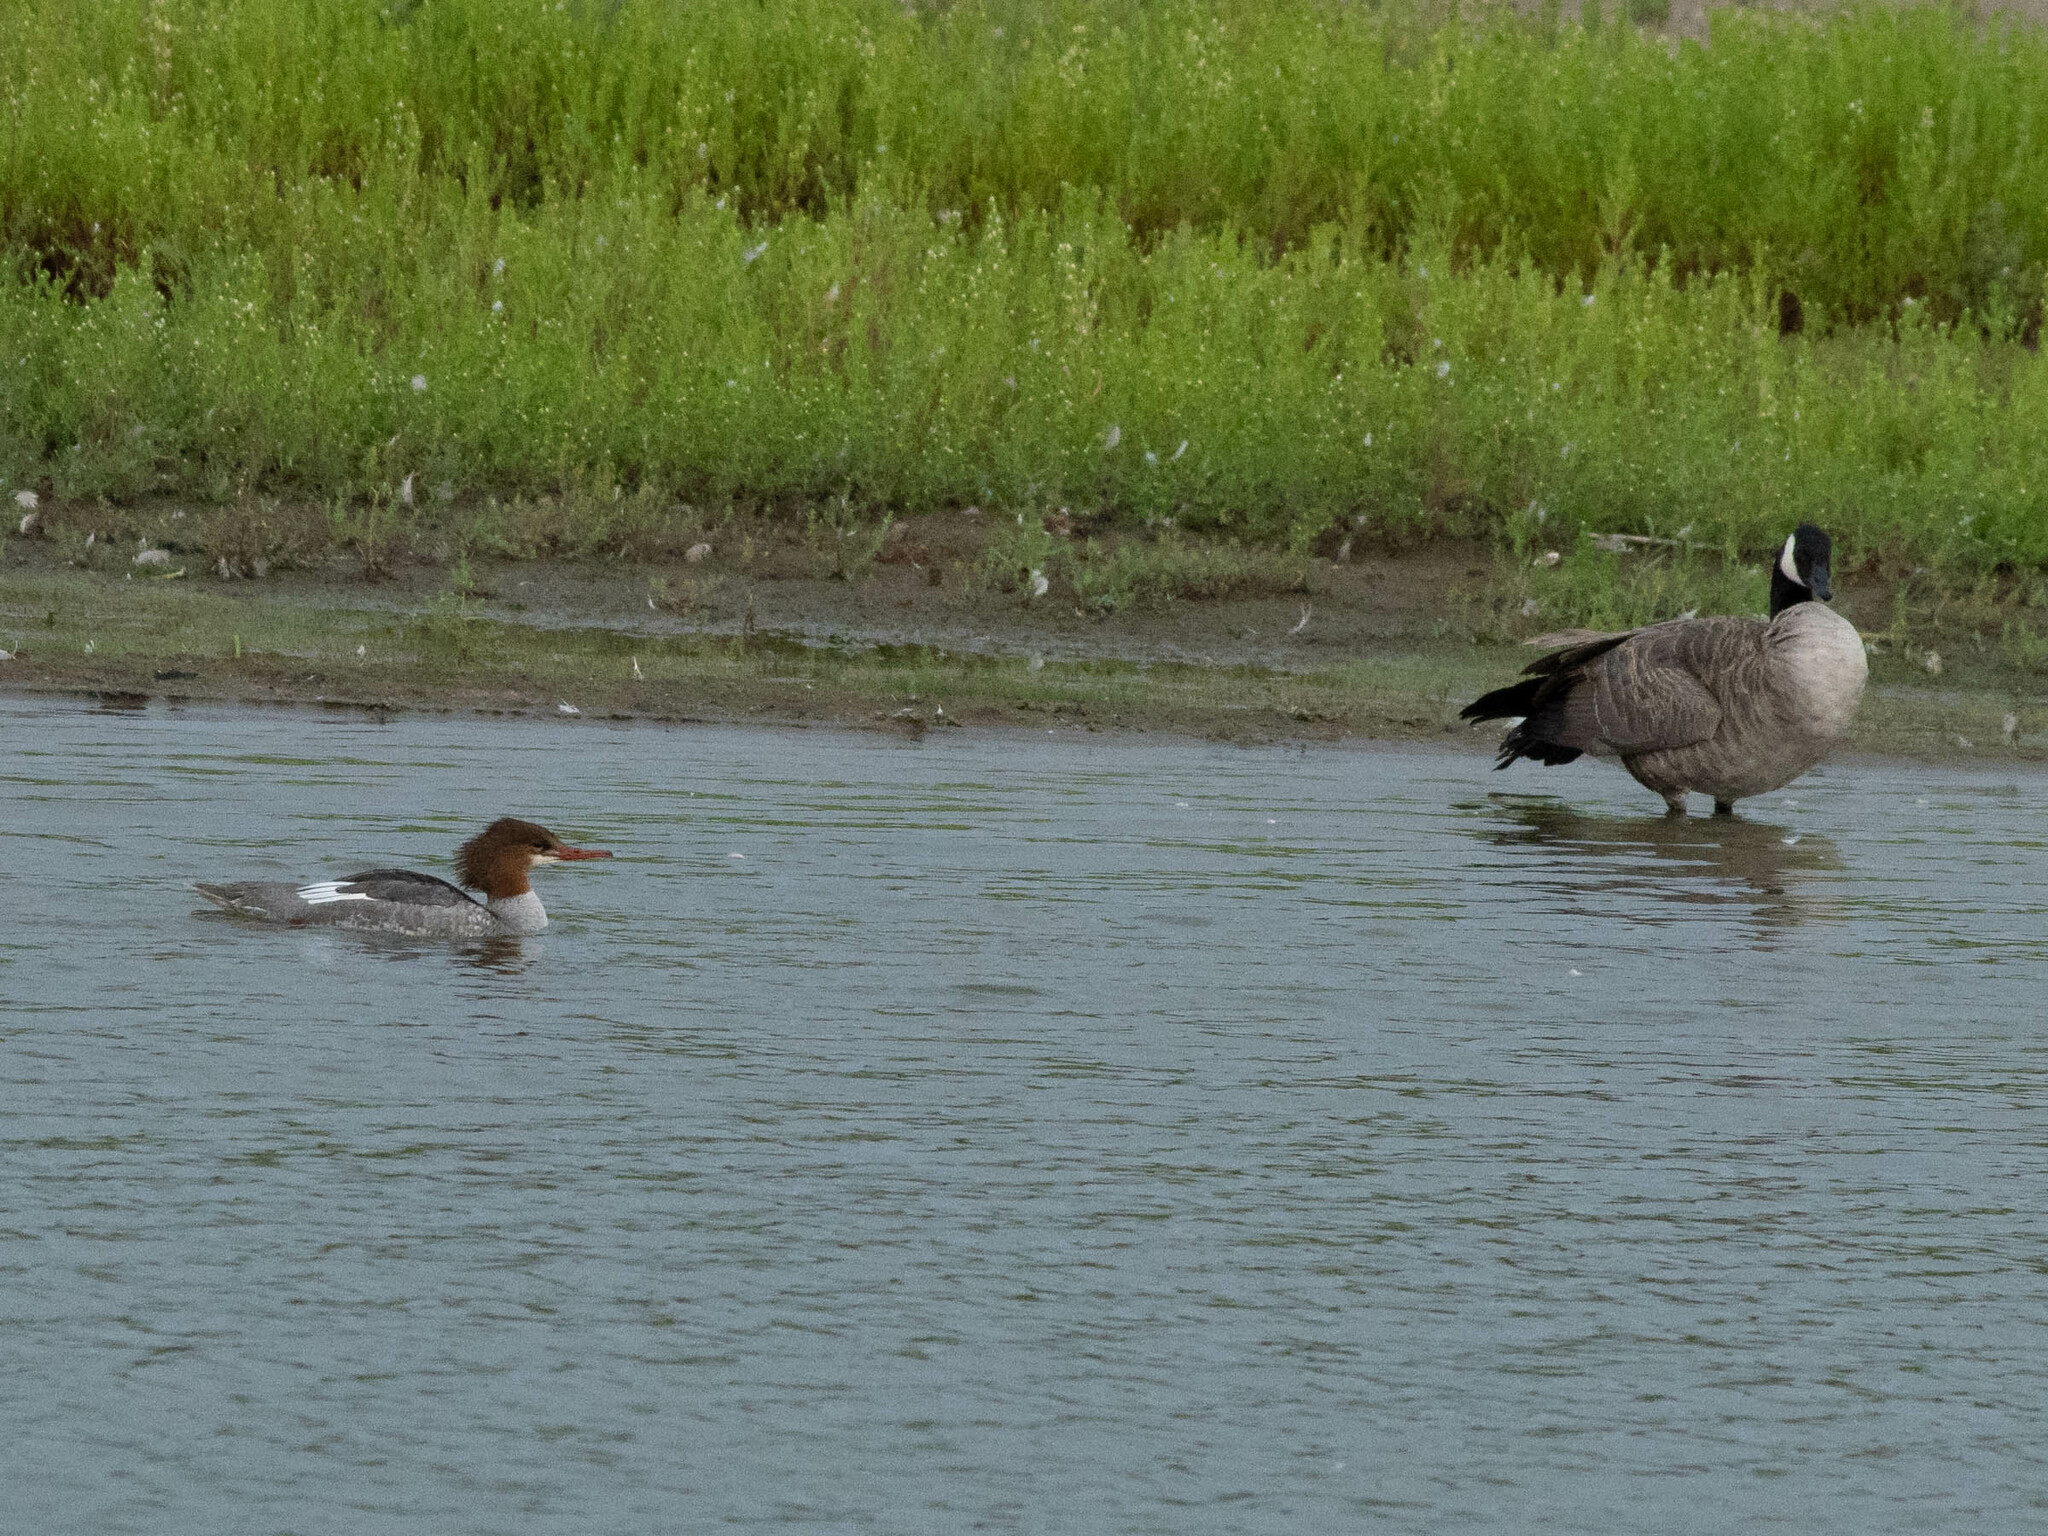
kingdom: Animalia
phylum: Chordata
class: Aves
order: Anseriformes
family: Anatidae
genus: Branta
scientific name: Branta canadensis
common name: Canada goose
